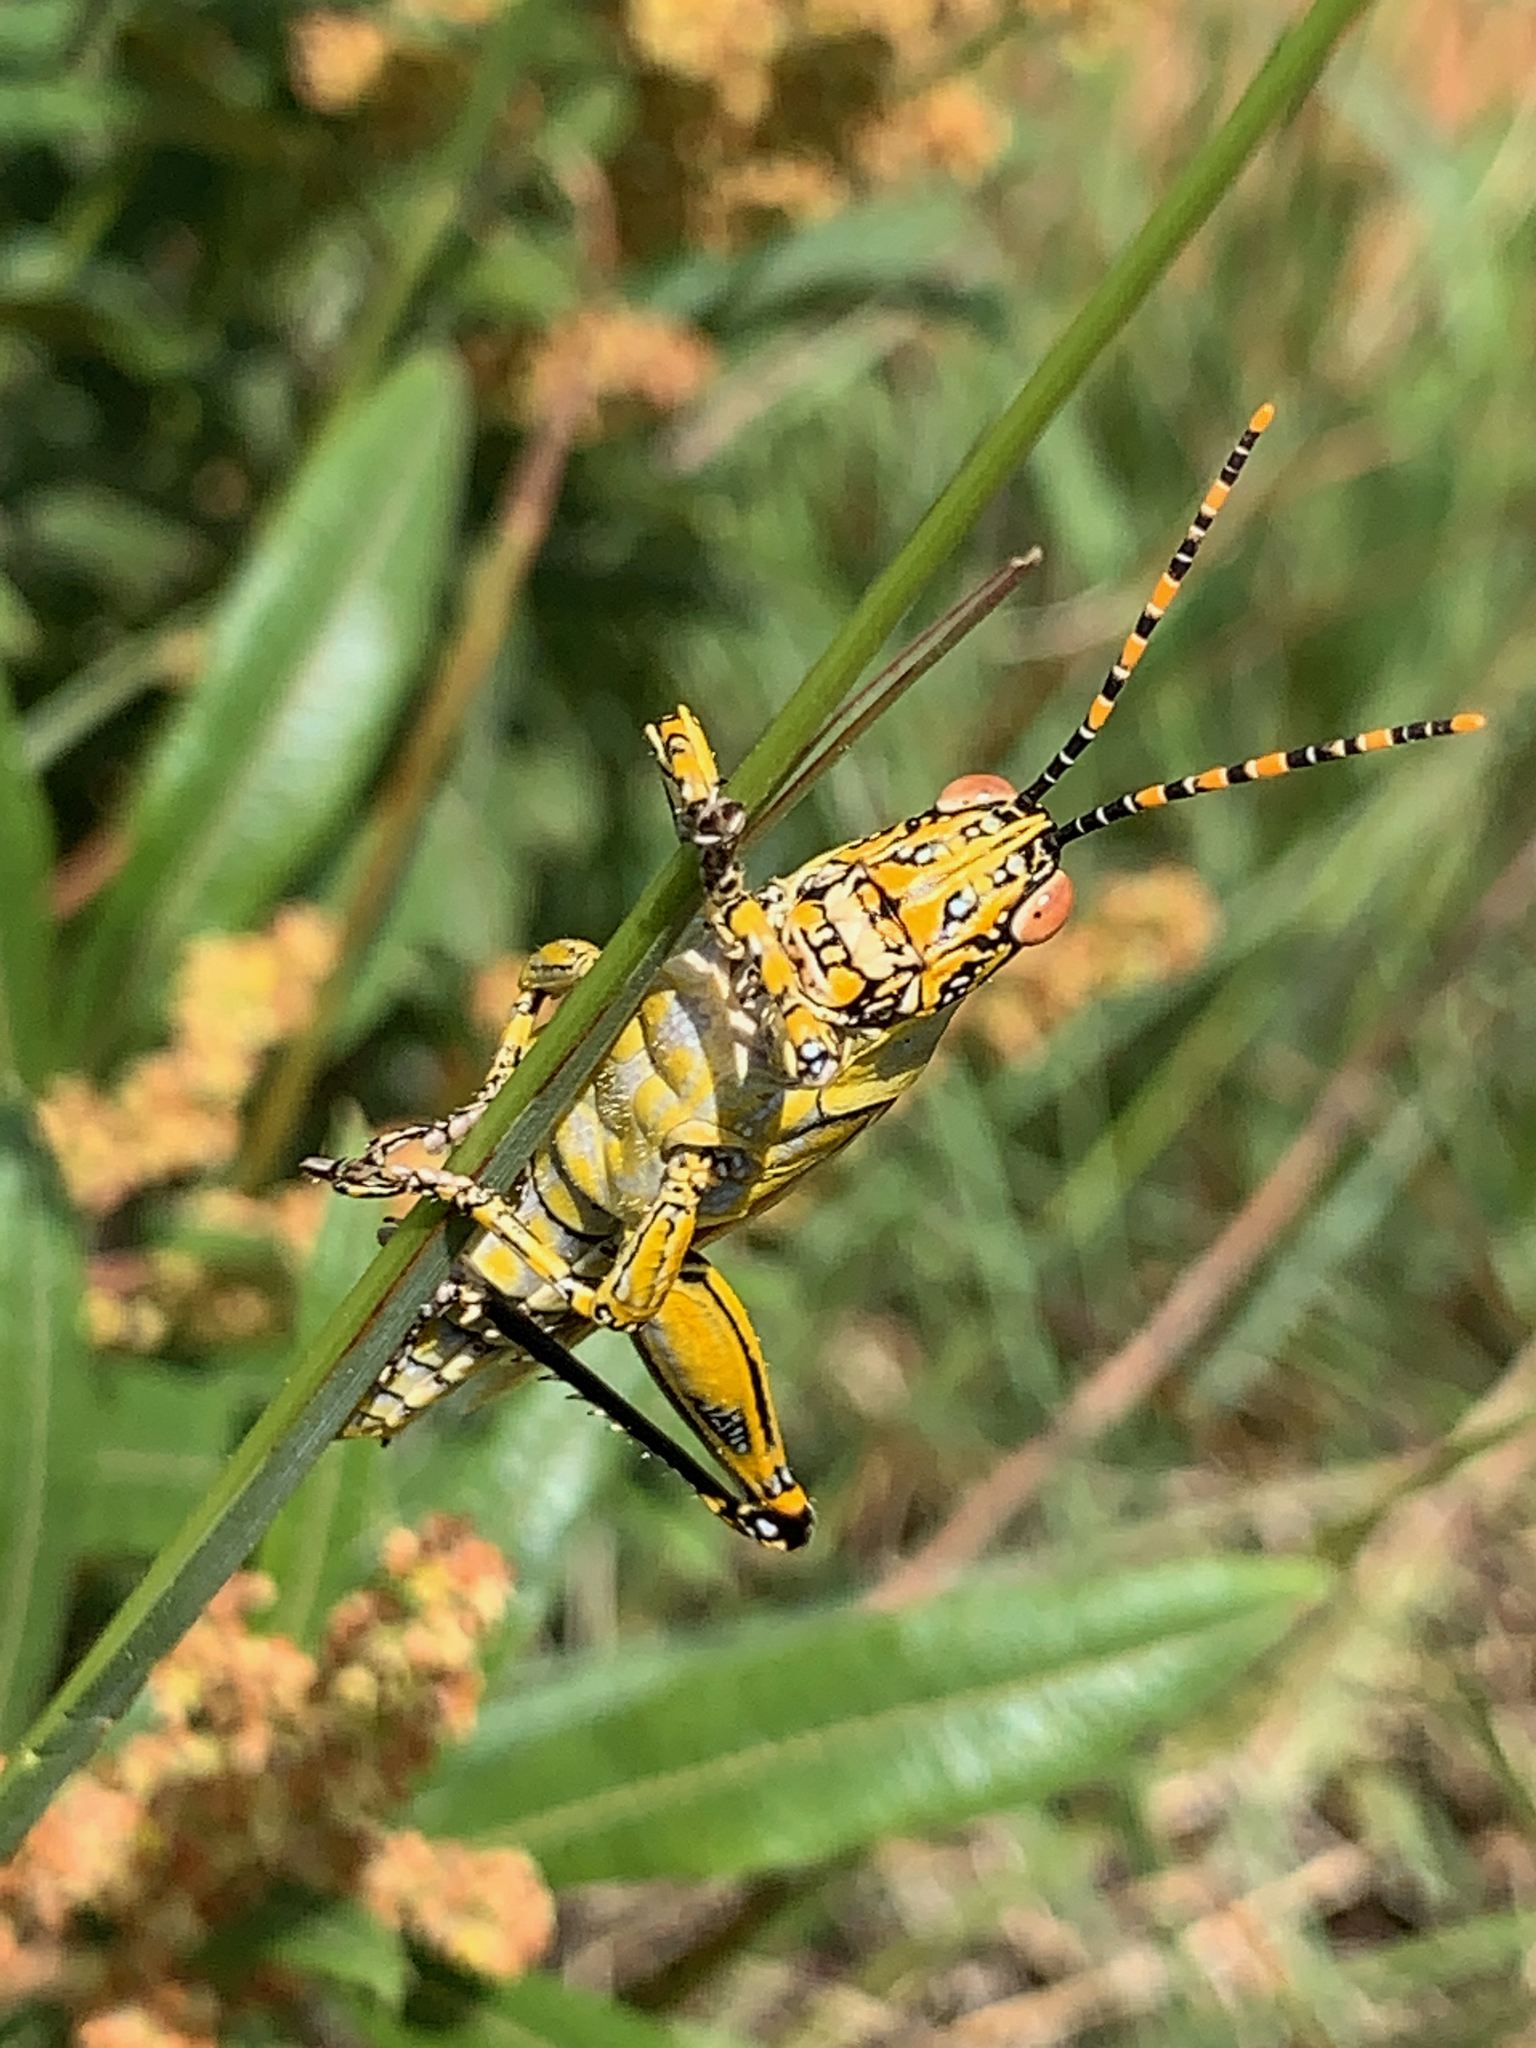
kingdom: Animalia
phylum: Arthropoda
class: Insecta
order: Orthoptera
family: Pyrgomorphidae
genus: Zonocerus
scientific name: Zonocerus elegans
